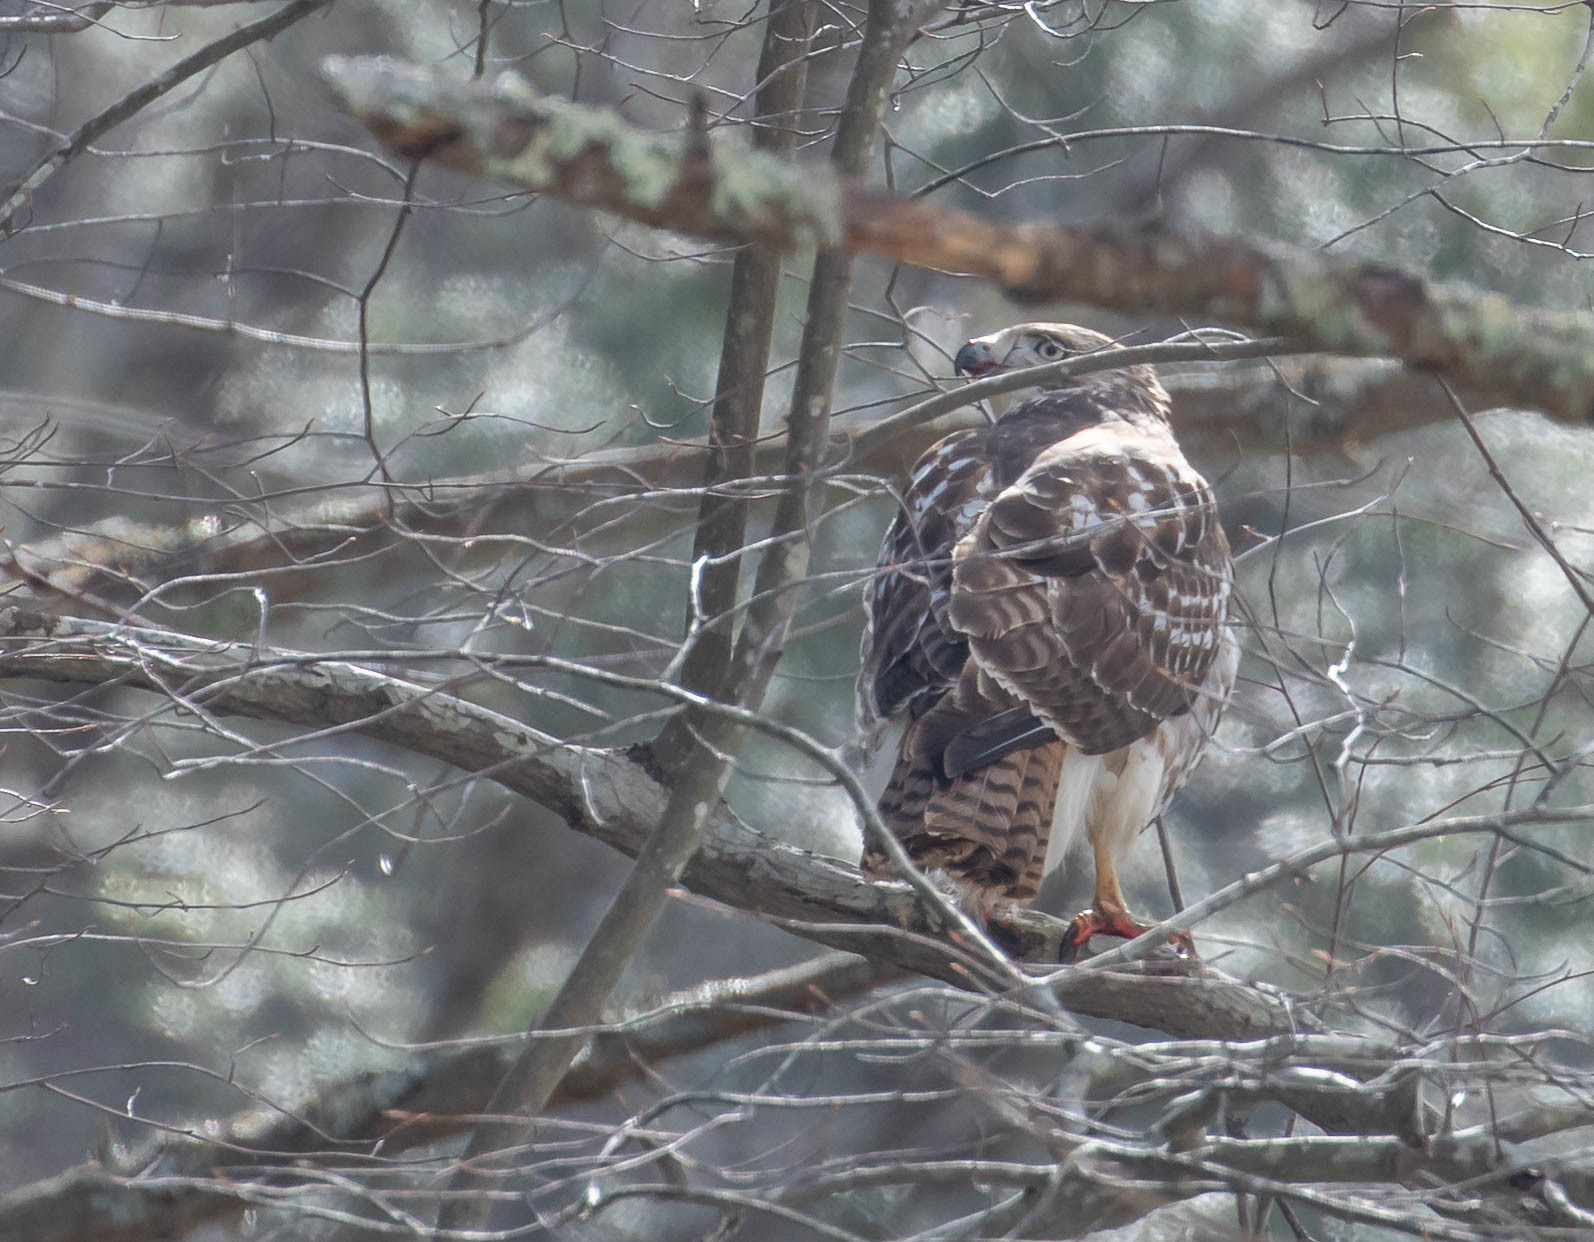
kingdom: Animalia
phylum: Chordata
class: Aves
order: Accipitriformes
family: Accipitridae
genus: Buteo
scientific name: Buteo jamaicensis
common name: Red-tailed hawk
